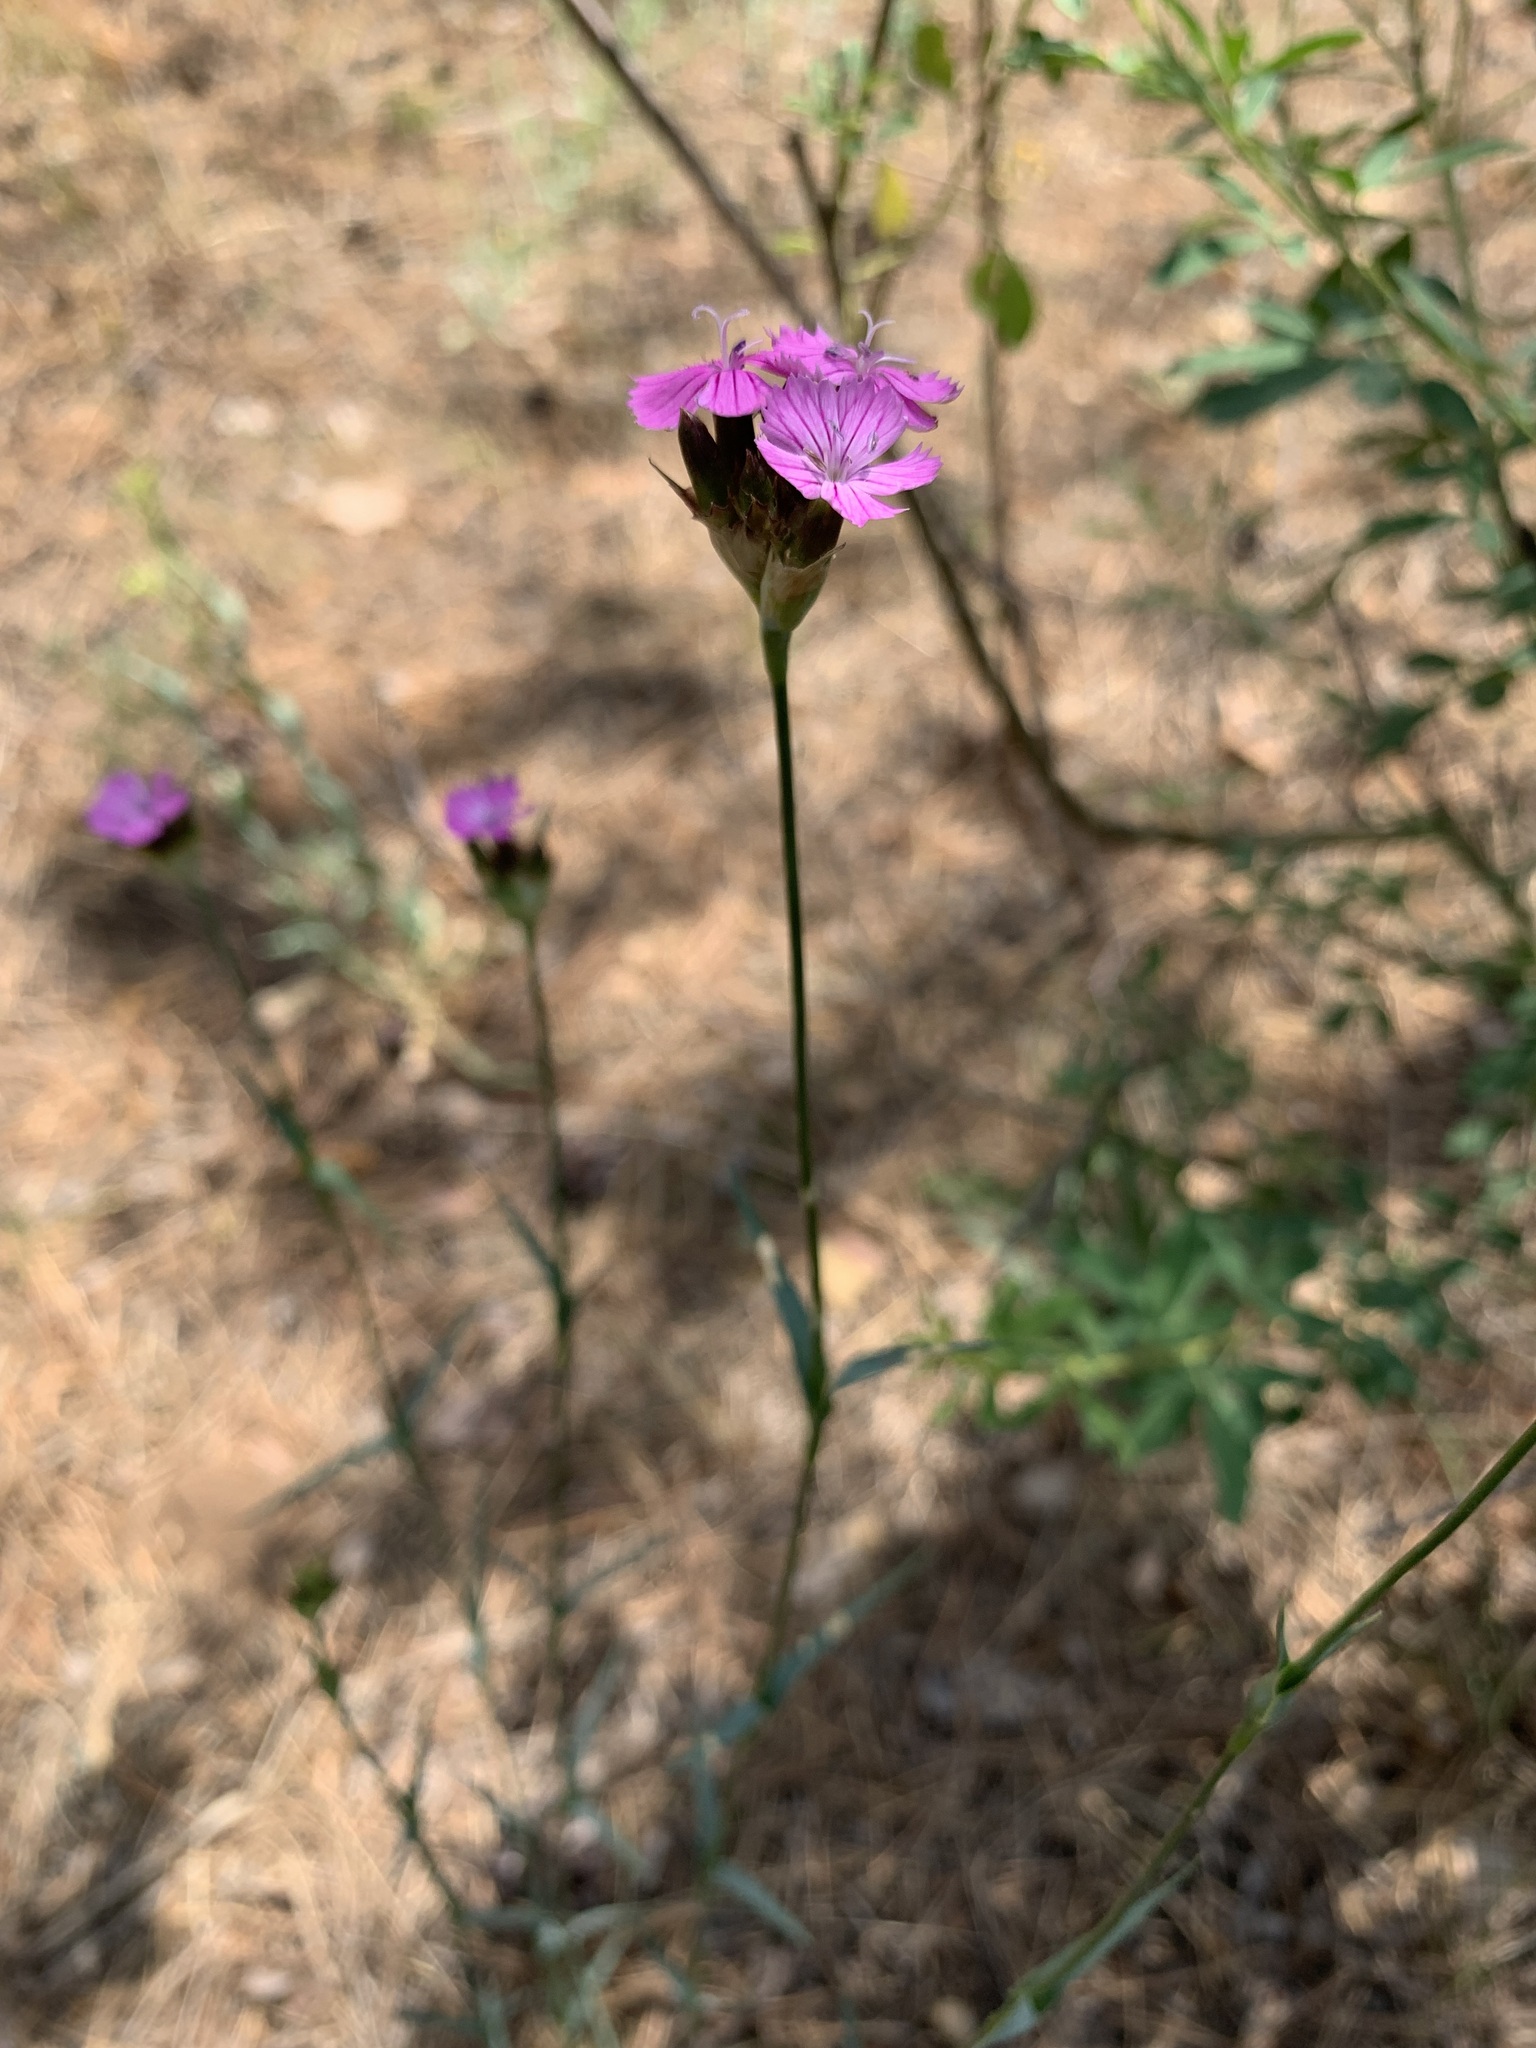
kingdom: Plantae
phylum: Tracheophyta
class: Magnoliopsida
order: Caryophyllales
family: Caryophyllaceae
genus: Dianthus
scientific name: Dianthus capitatus
